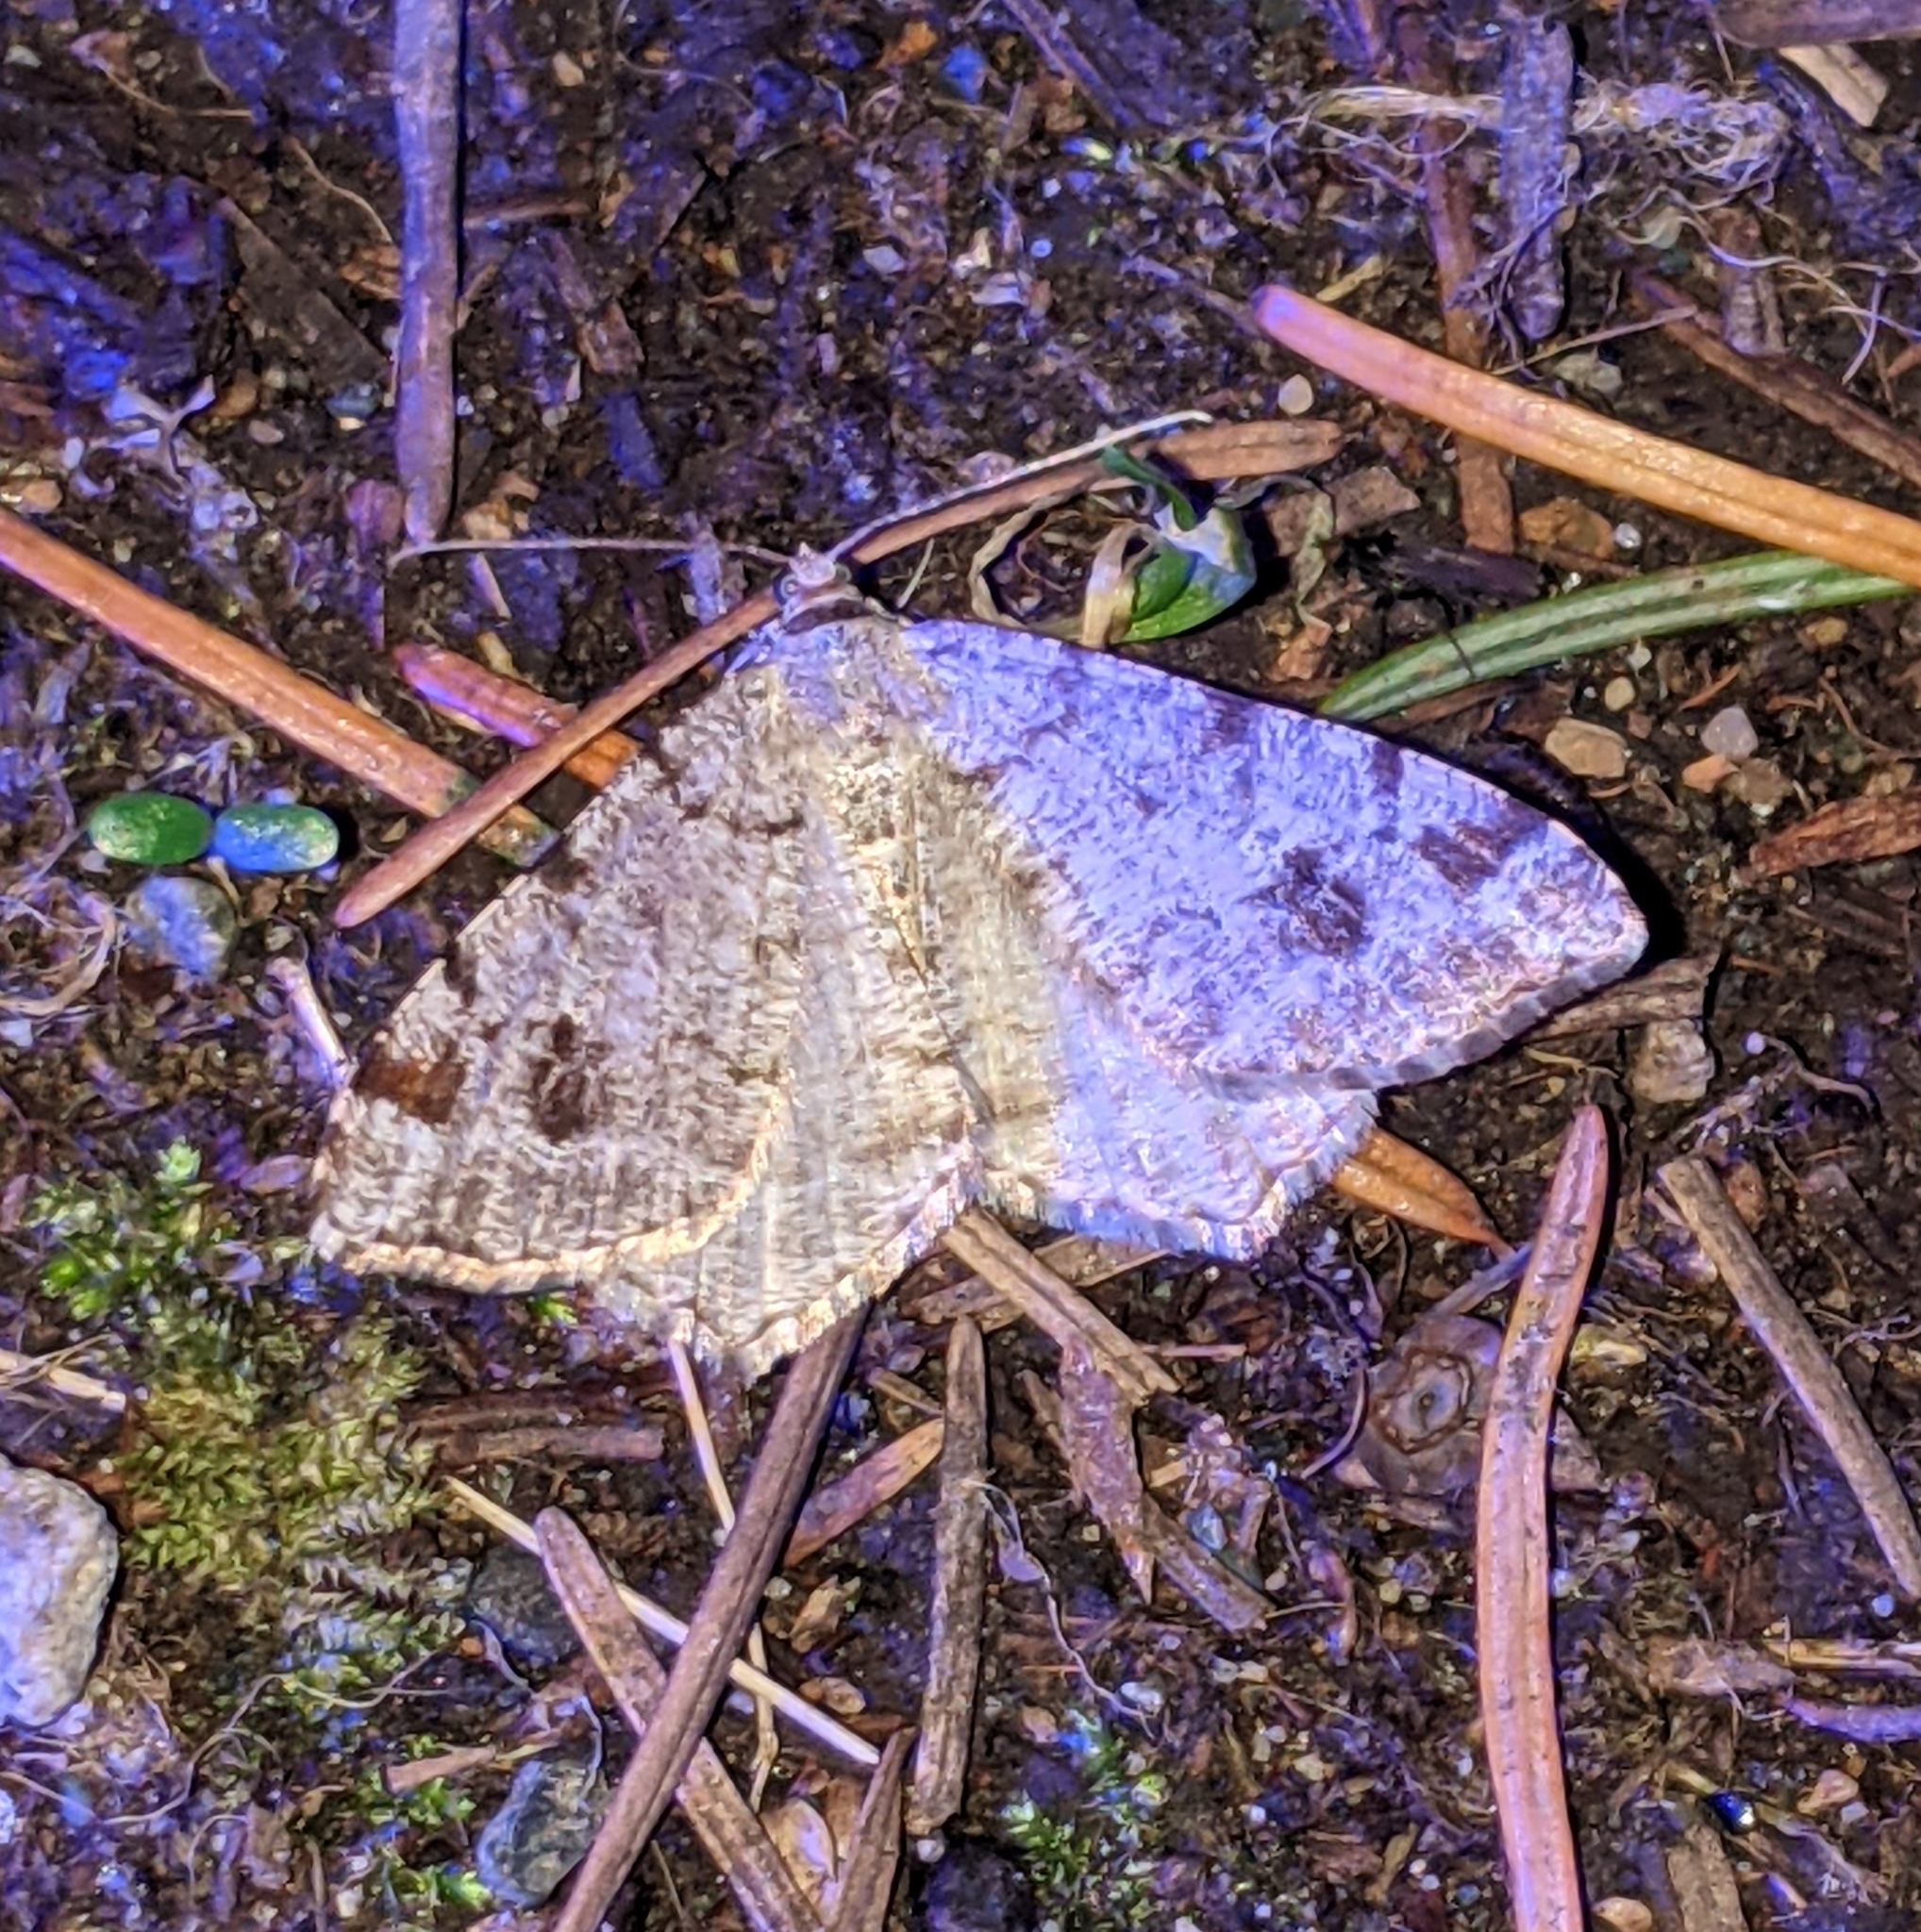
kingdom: Animalia
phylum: Arthropoda
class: Insecta
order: Lepidoptera
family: Geometridae
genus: Macaria
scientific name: Macaria signaria
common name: Dusky peacock
